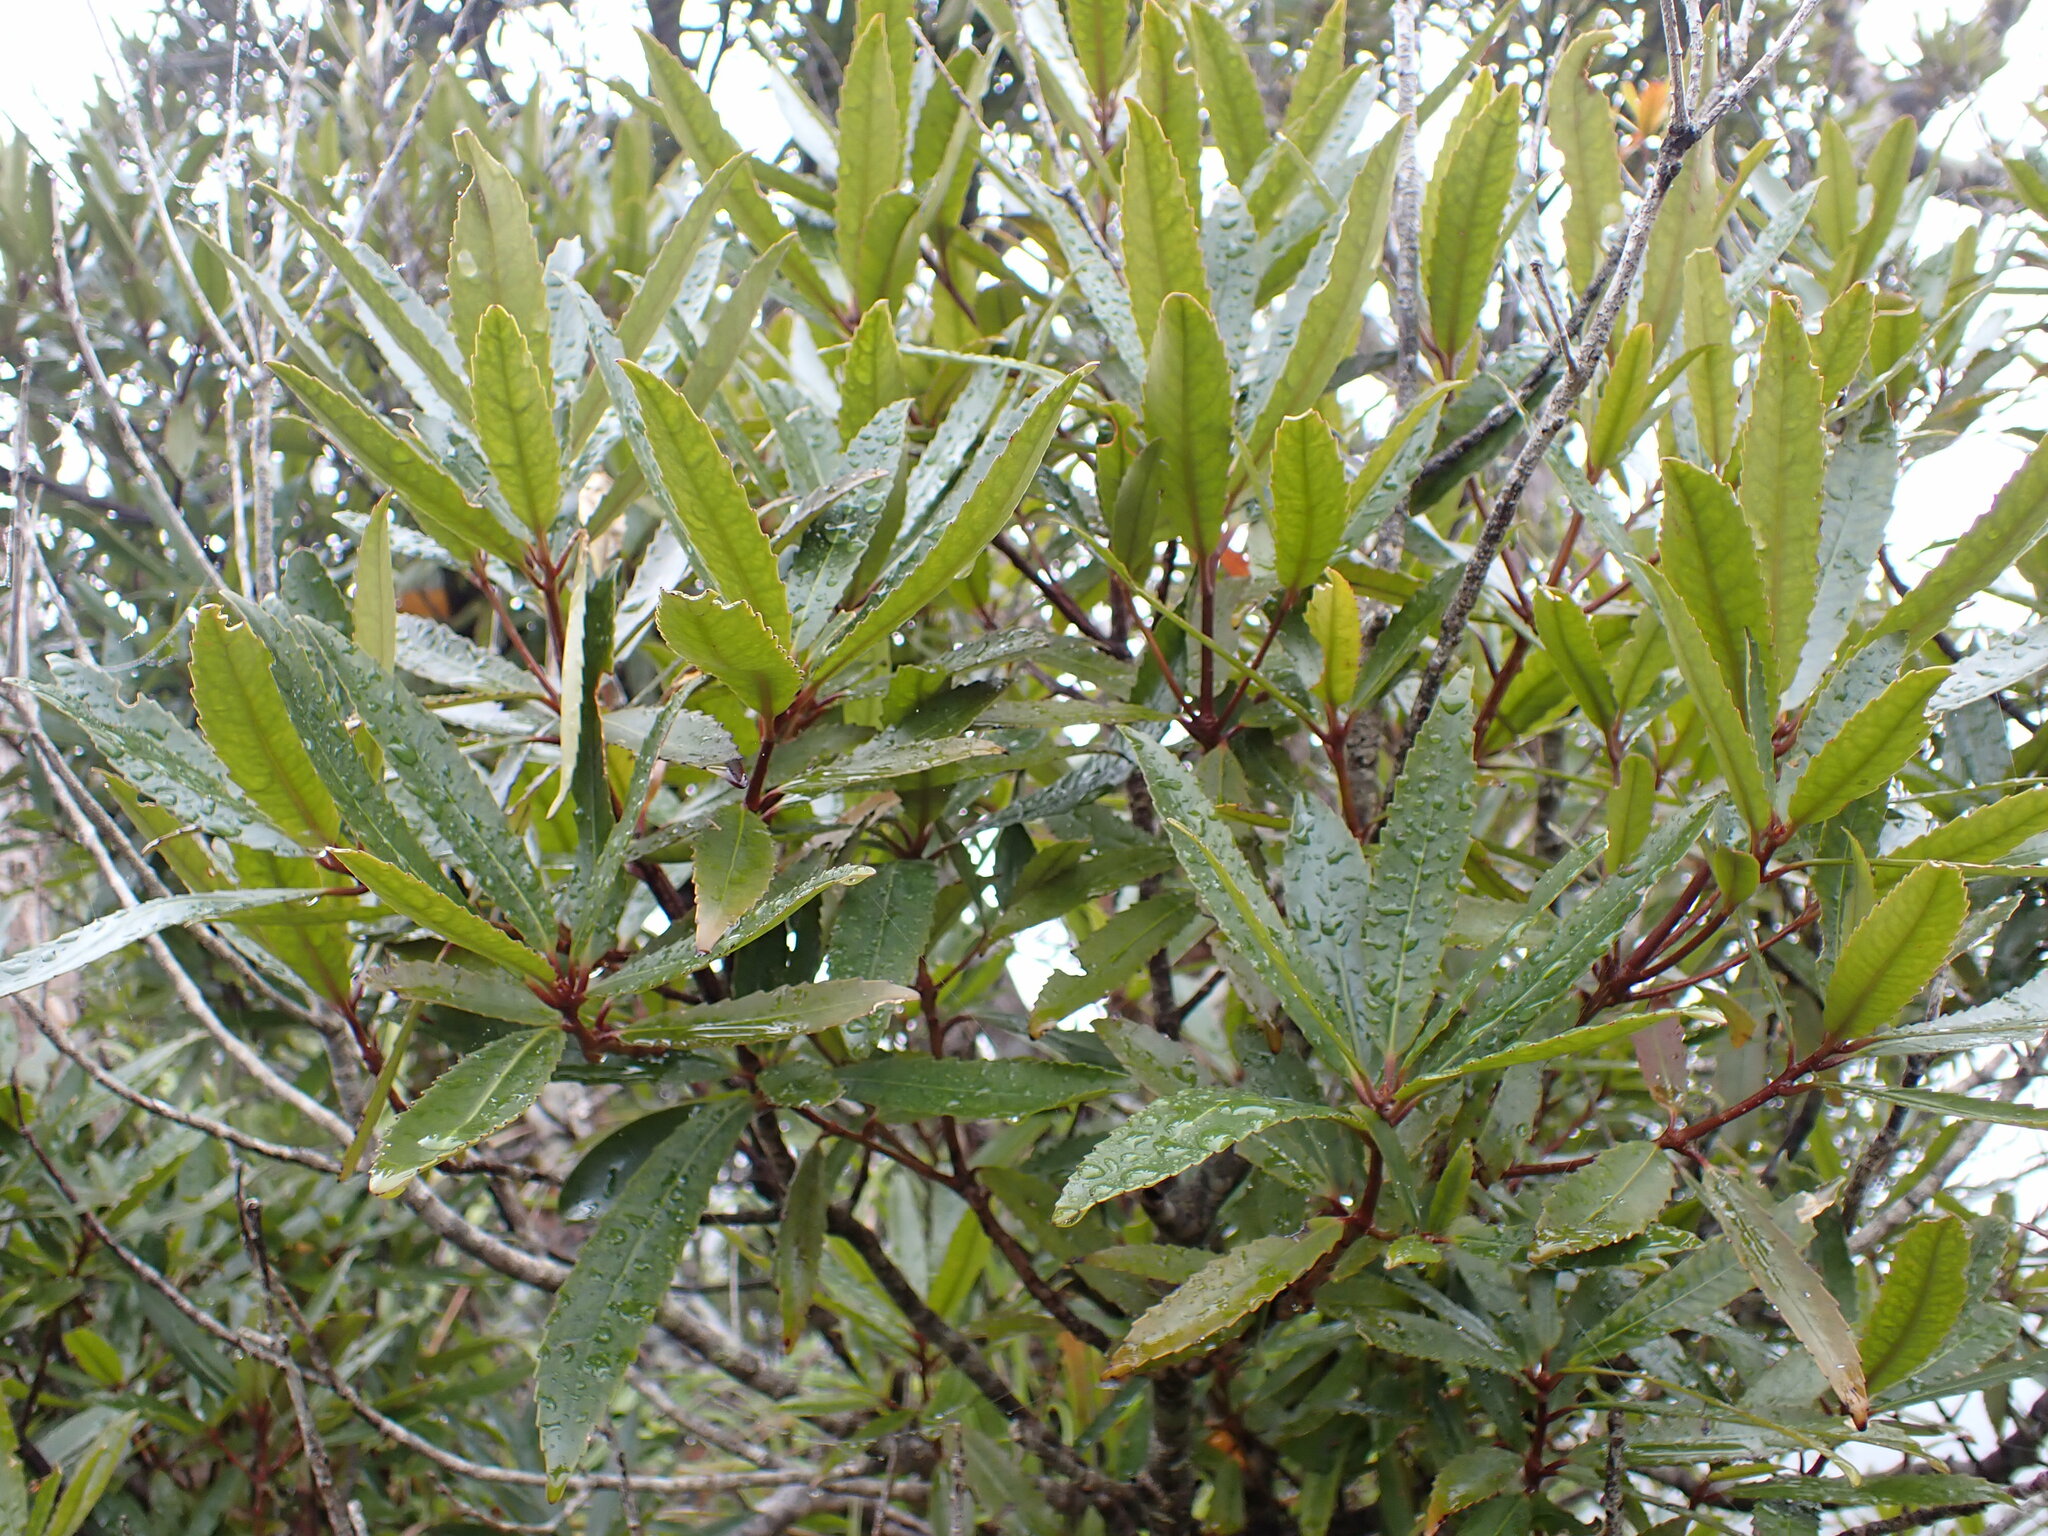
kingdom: Plantae
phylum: Tracheophyta
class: Magnoliopsida
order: Crossosomatales
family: Ixerbaceae
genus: Ixerba
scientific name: Ixerba brexioides
